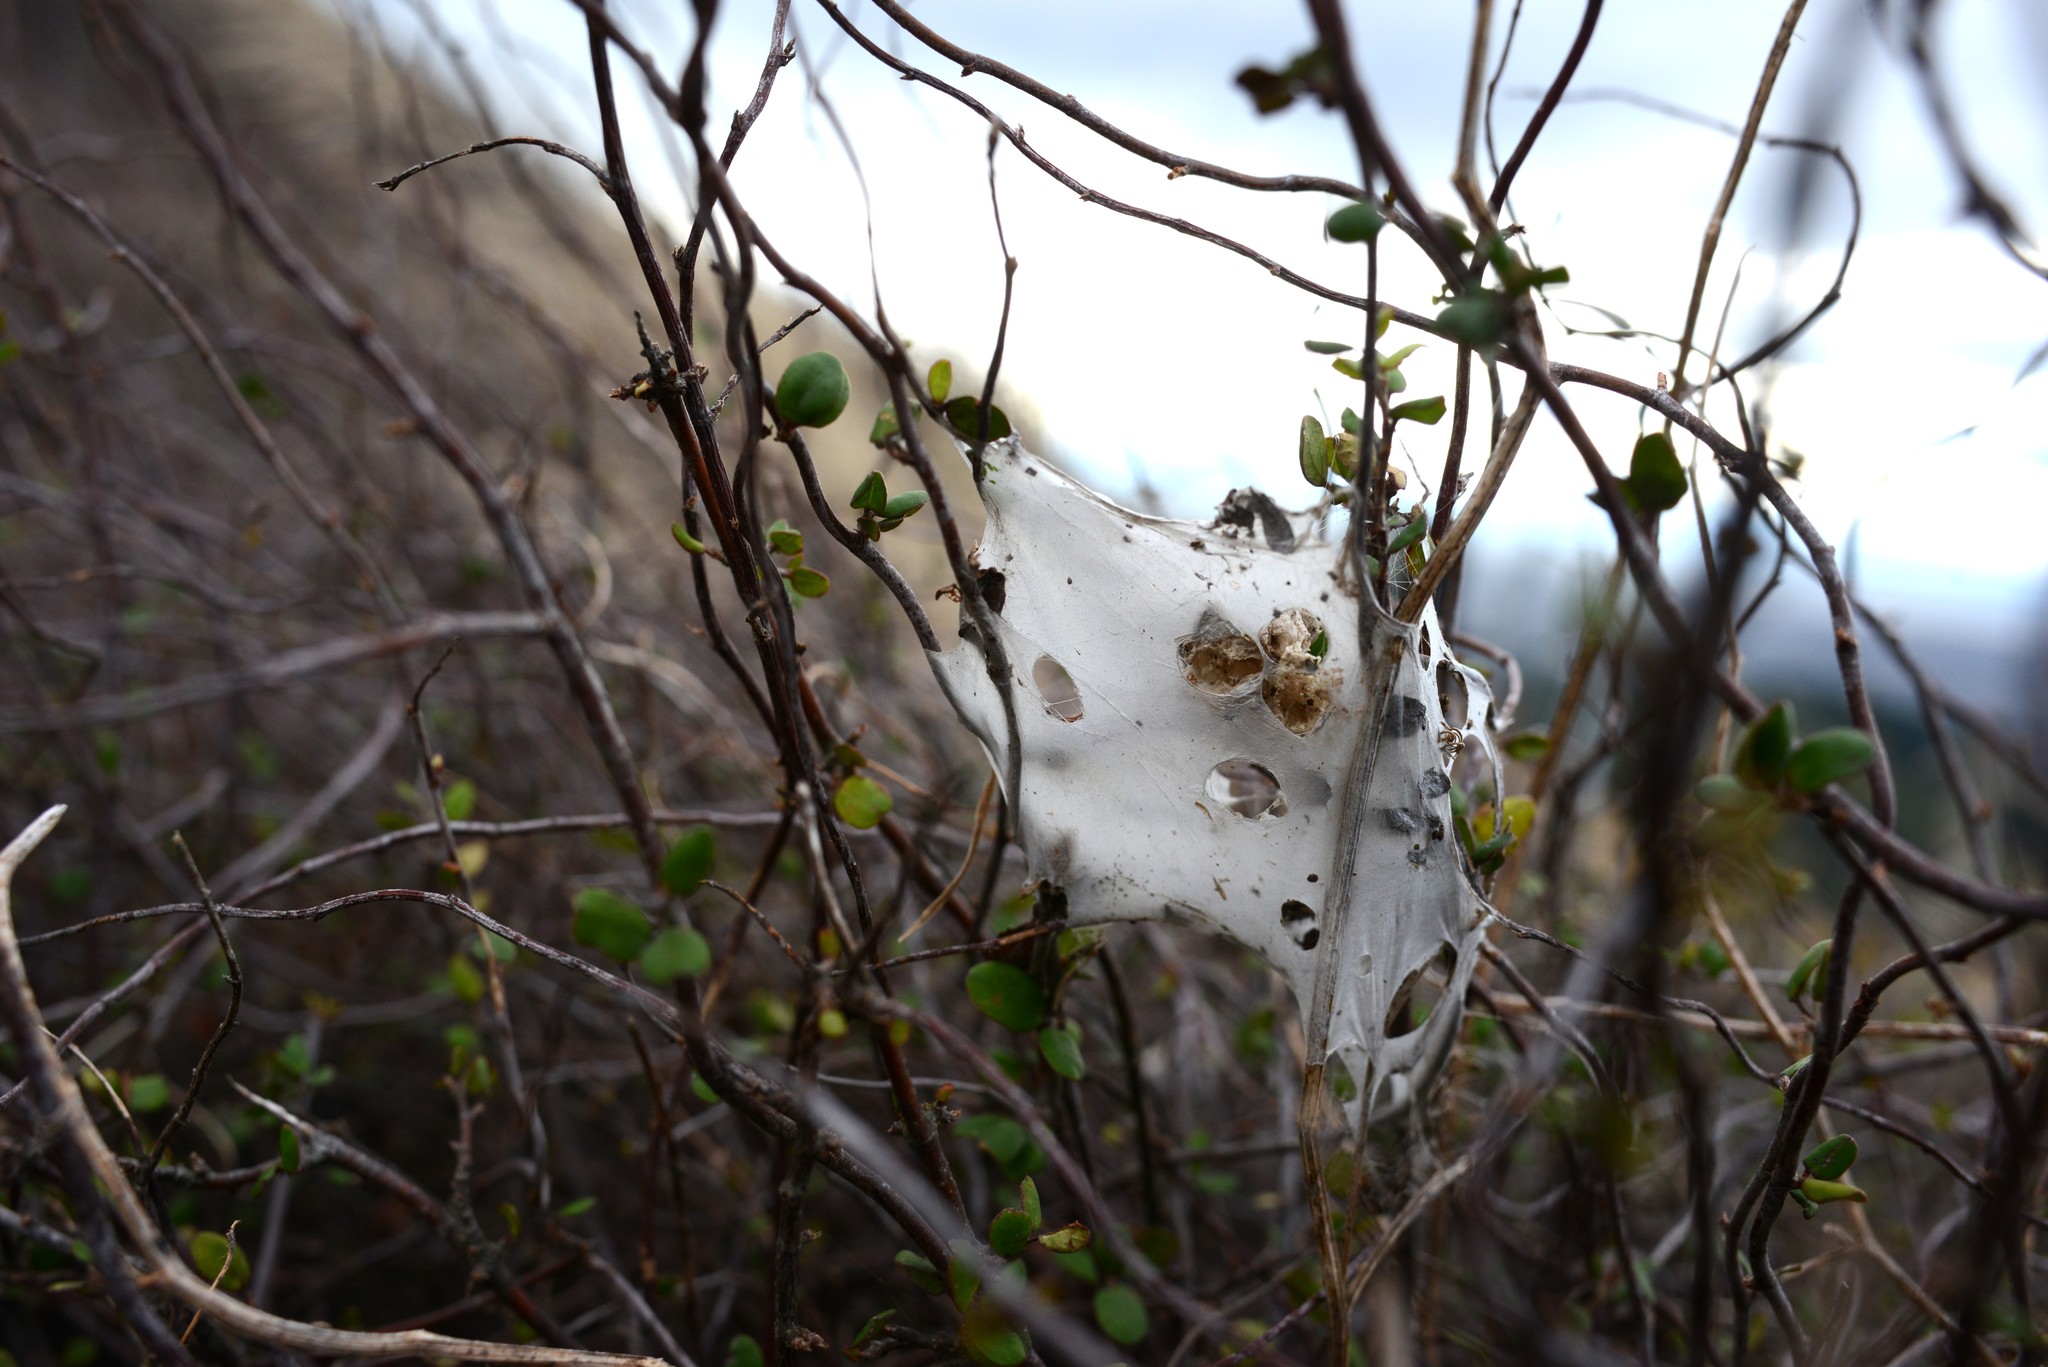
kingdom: Animalia
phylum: Arthropoda
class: Arachnida
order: Araneae
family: Pisauridae
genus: Dolomedes
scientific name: Dolomedes minor
